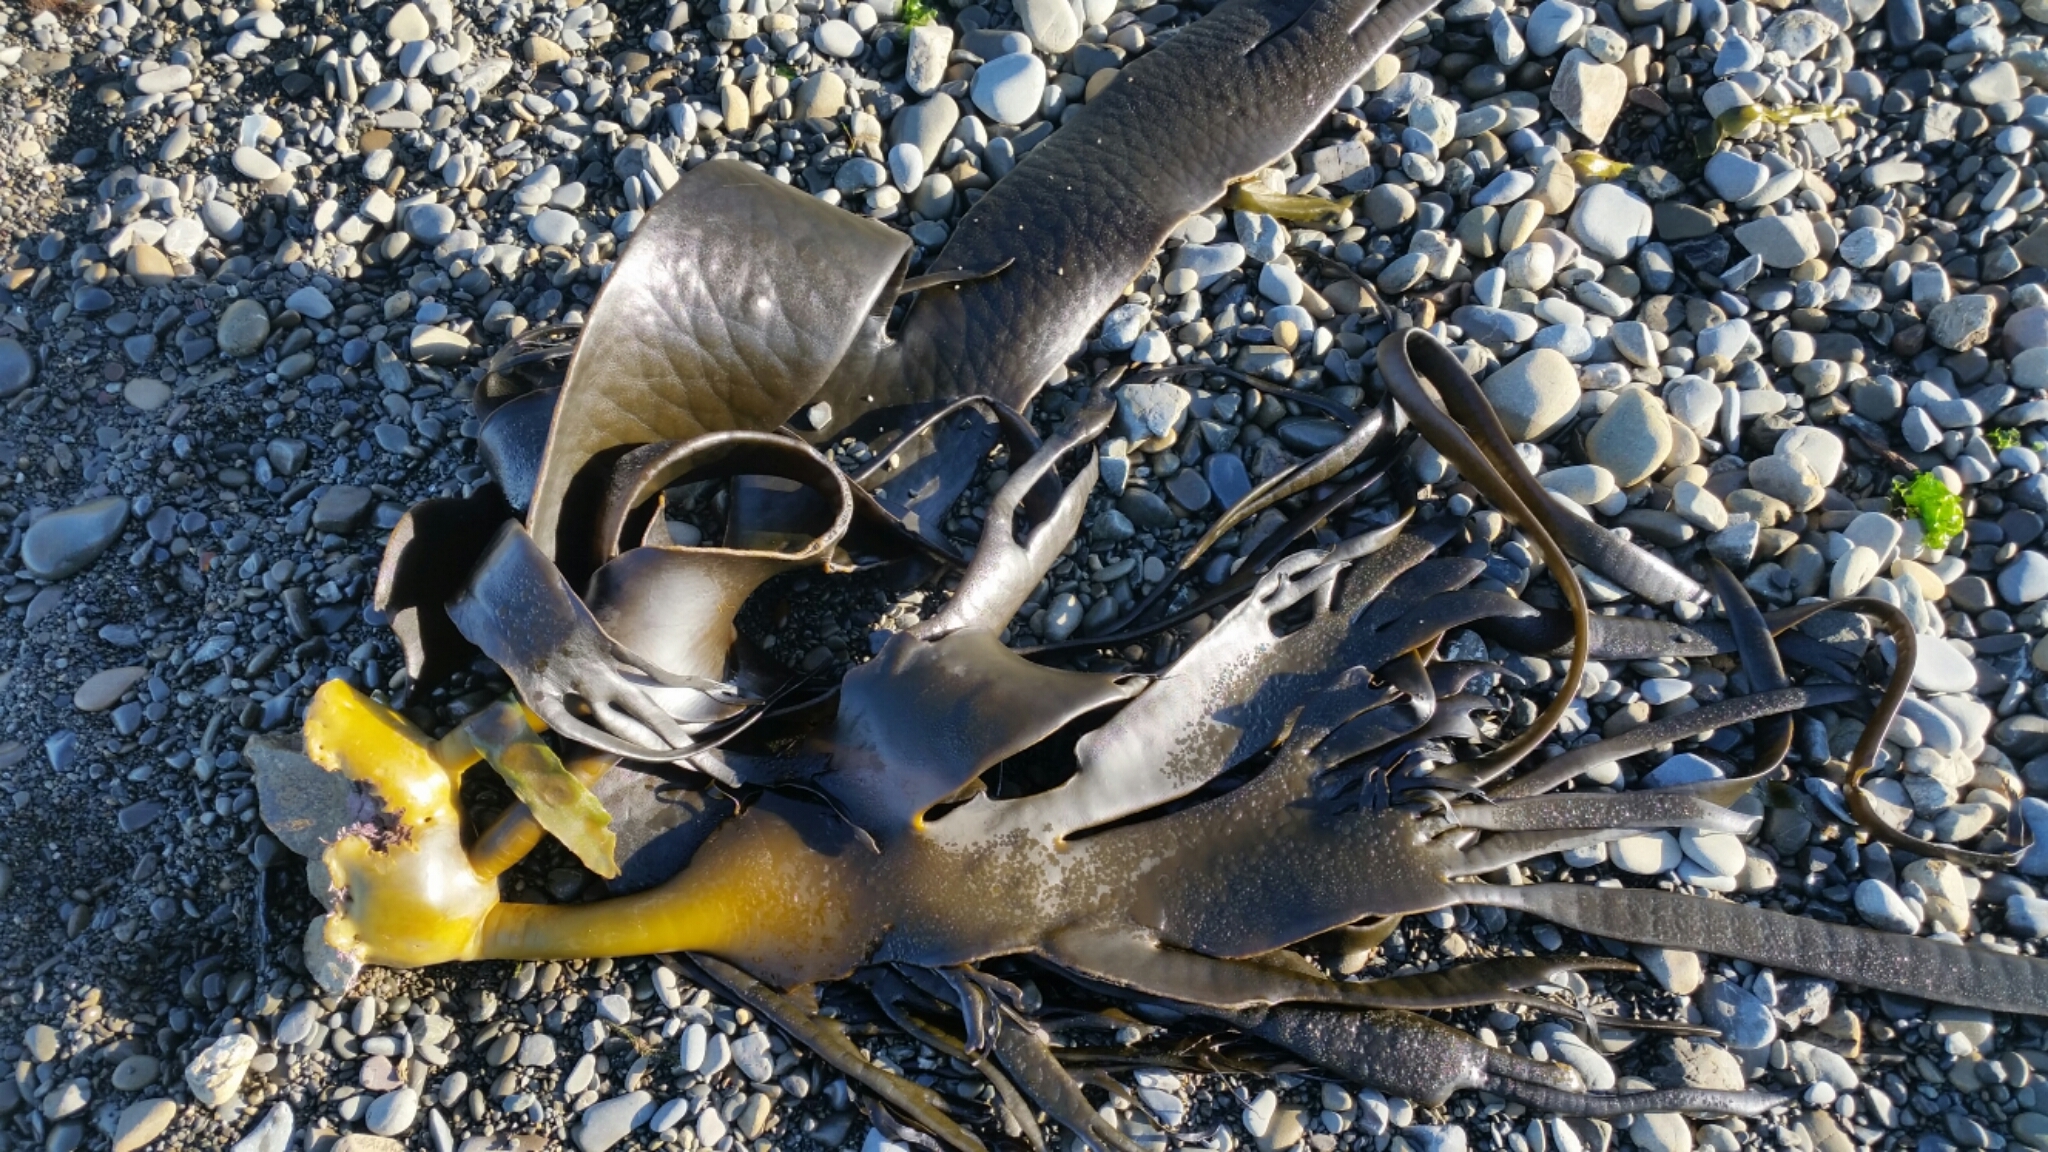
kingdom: Chromista
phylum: Ochrophyta
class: Phaeophyceae
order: Fucales
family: Durvillaeaceae
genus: Durvillaea
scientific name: Durvillaea antarctica
